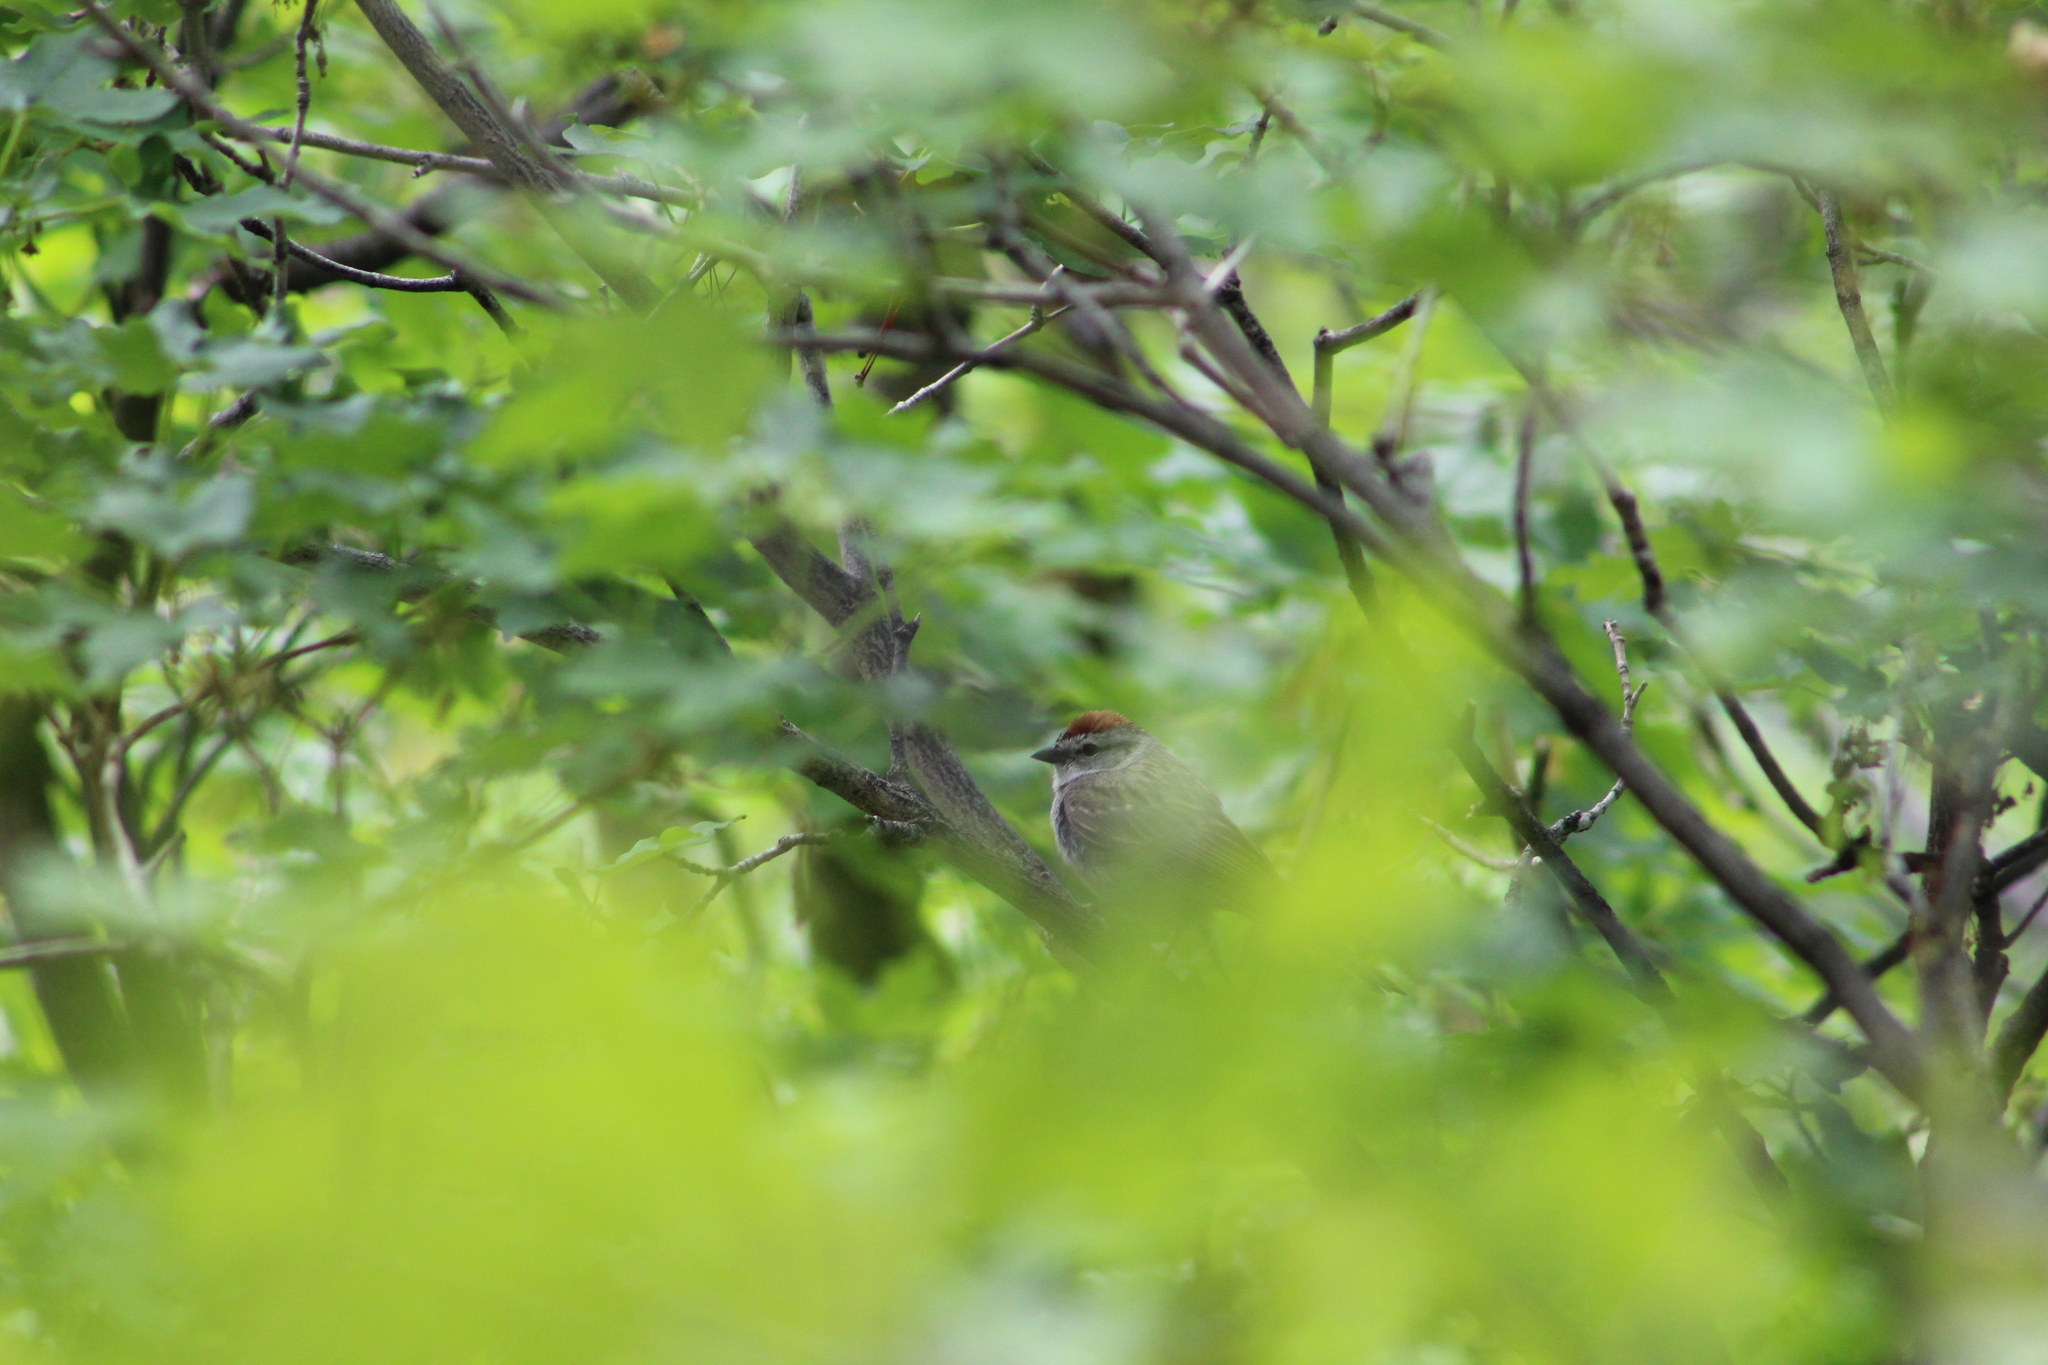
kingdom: Animalia
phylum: Chordata
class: Aves
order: Passeriformes
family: Passerellidae
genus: Spizella
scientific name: Spizella passerina
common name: Chipping sparrow
